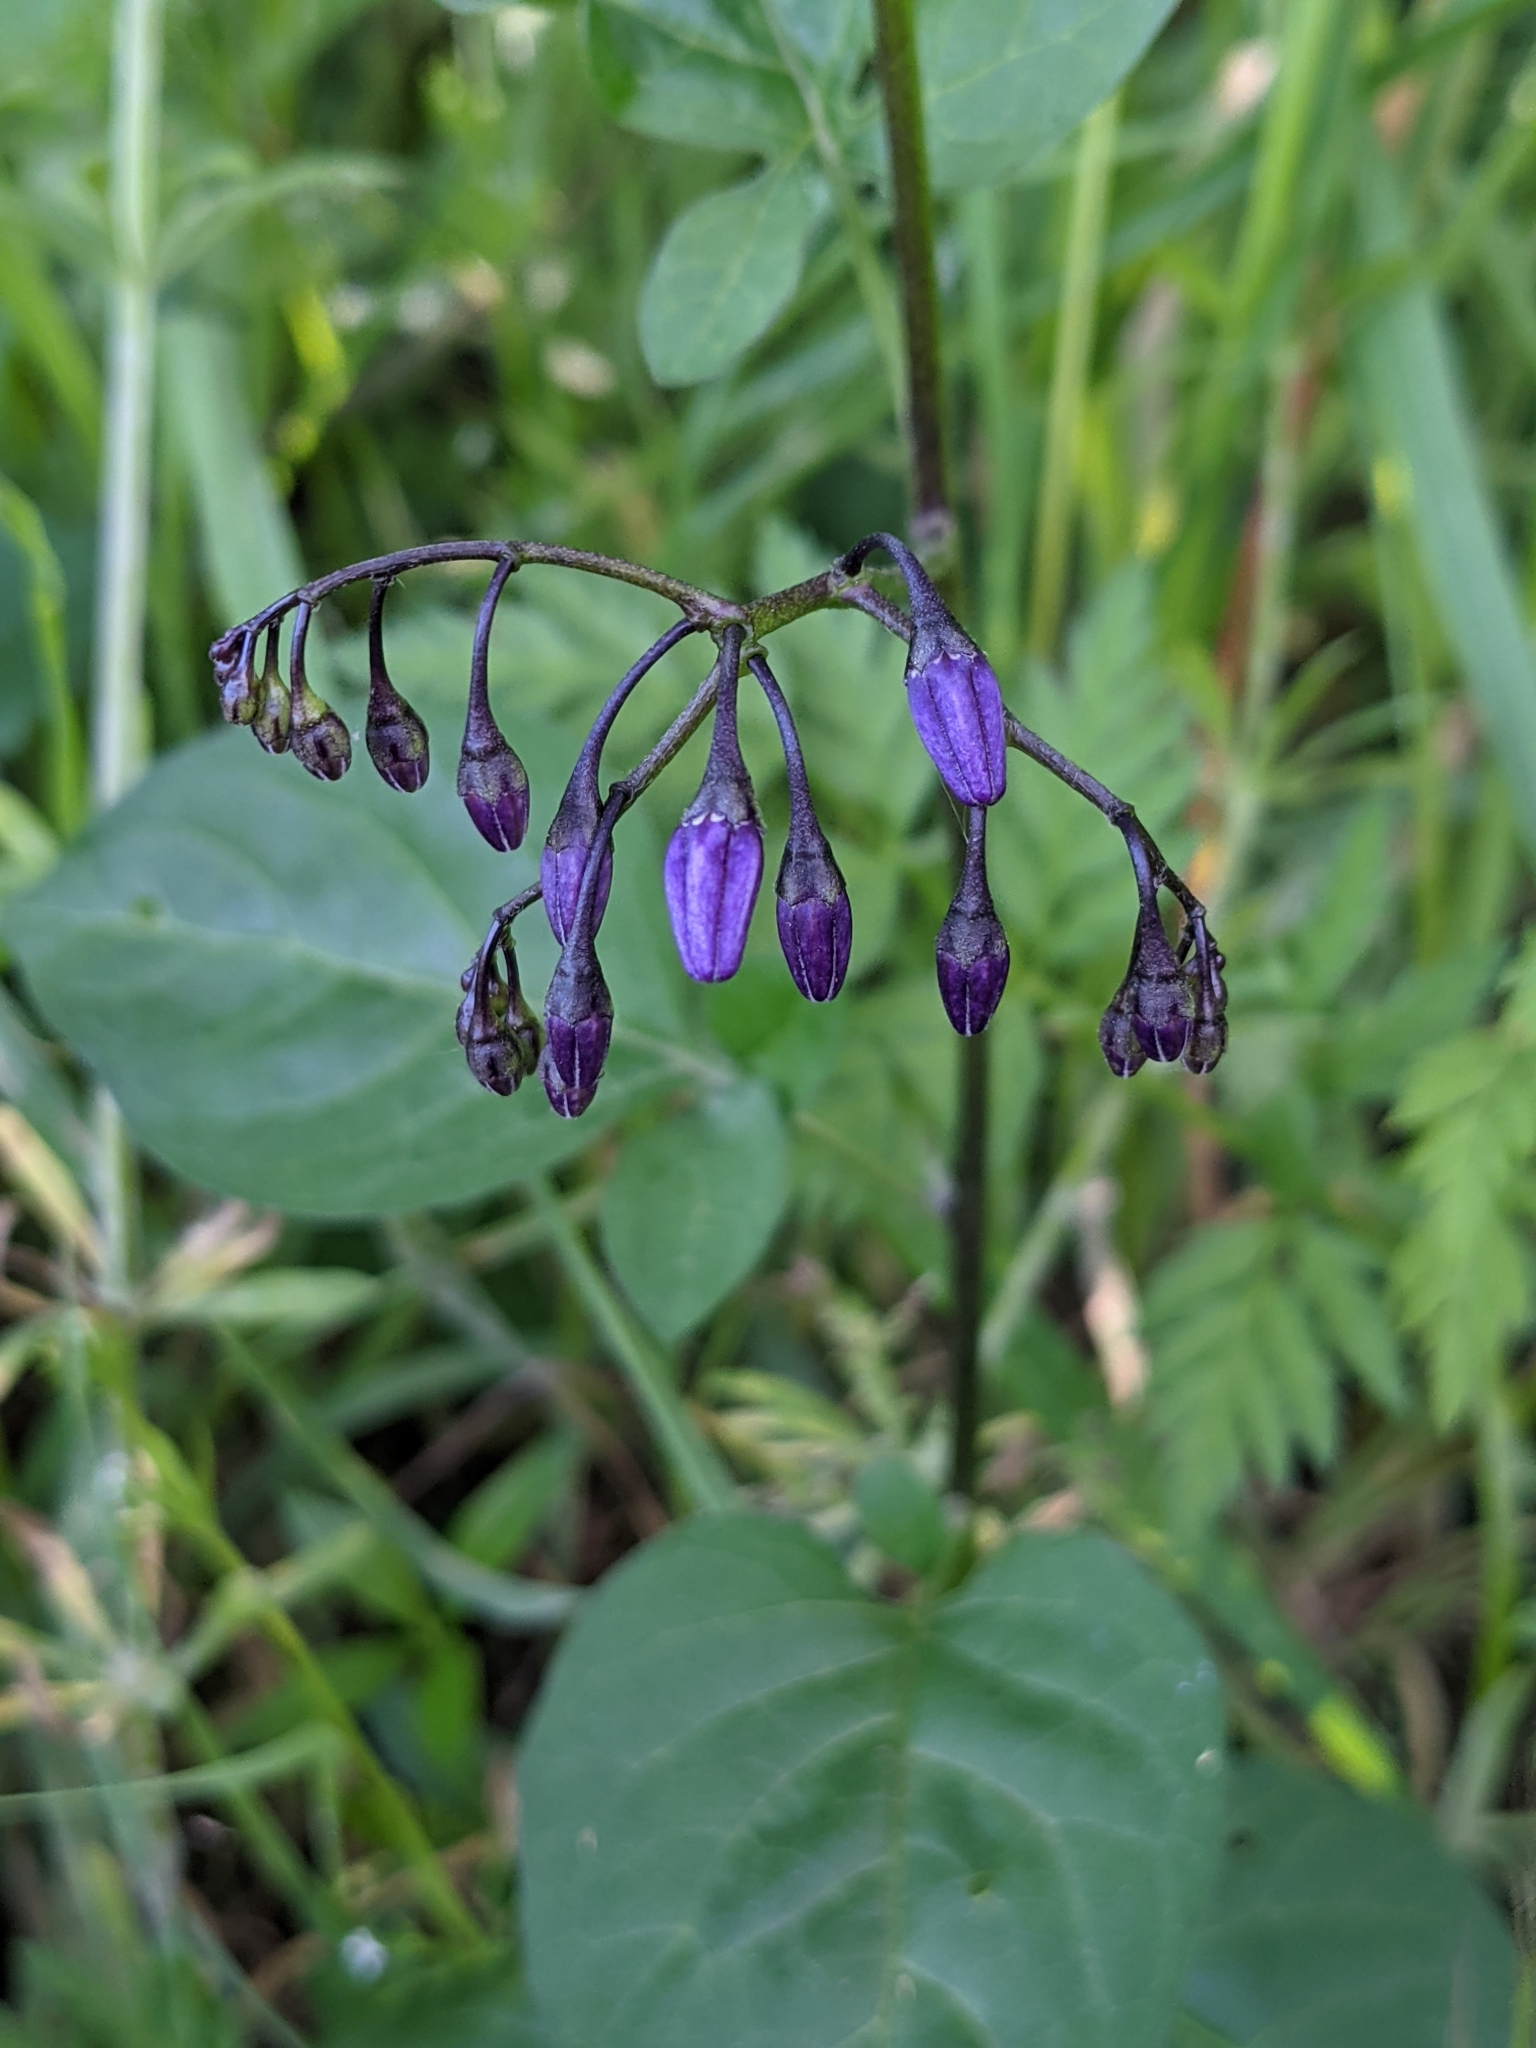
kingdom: Plantae
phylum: Tracheophyta
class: Magnoliopsida
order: Solanales
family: Solanaceae
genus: Solanum
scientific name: Solanum dulcamara
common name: Climbing nightshade
